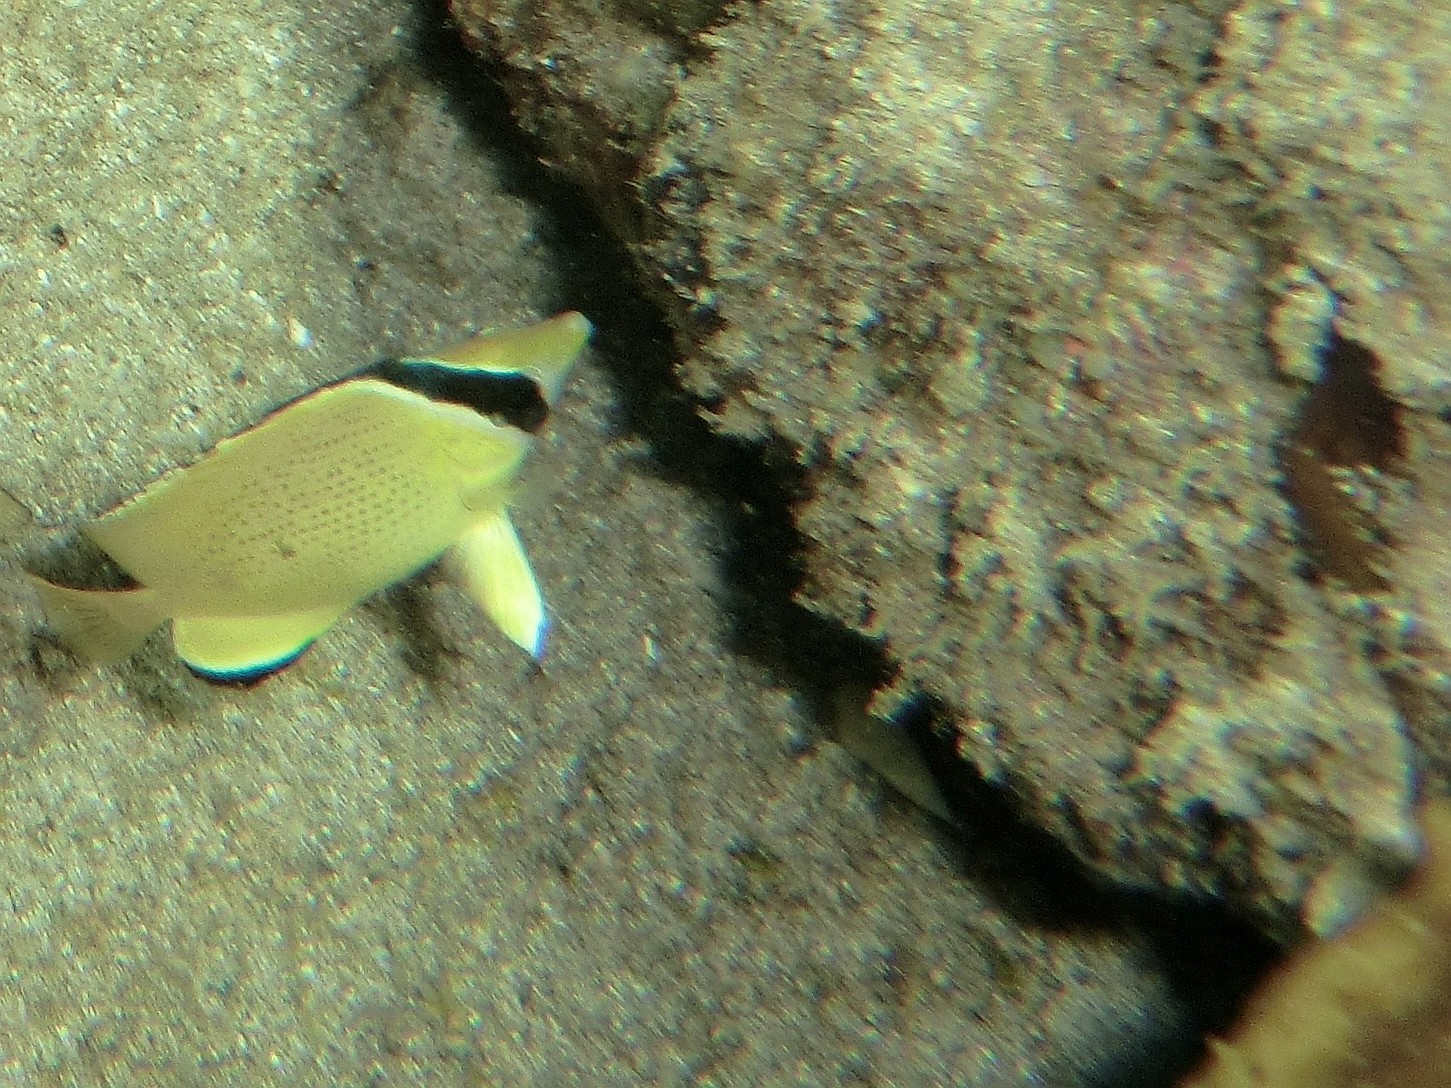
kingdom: Animalia
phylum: Chordata
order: Perciformes
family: Chaetodontidae
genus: Chaetodon
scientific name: Chaetodon citrinellus
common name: Speckled butterflyfish
